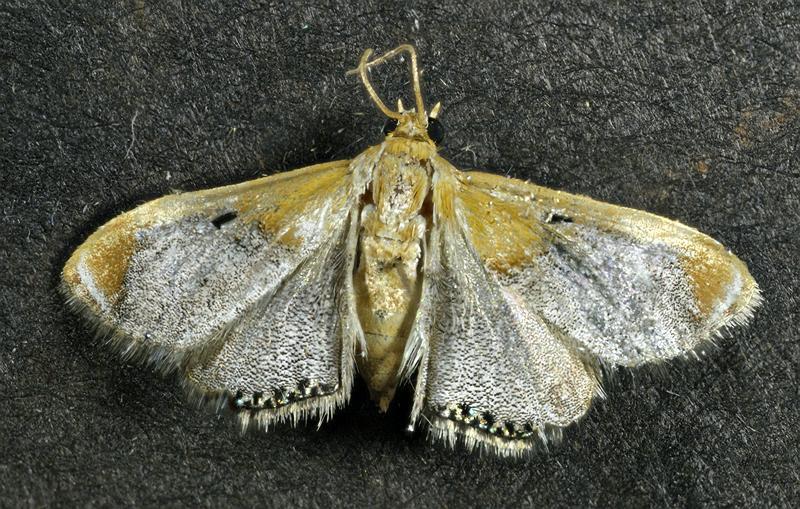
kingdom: Animalia
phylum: Arthropoda
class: Insecta
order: Lepidoptera
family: Crambidae
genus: Chalcoela
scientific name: Chalcoela iphitalis
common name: Sooty-winged chalcoela moth
